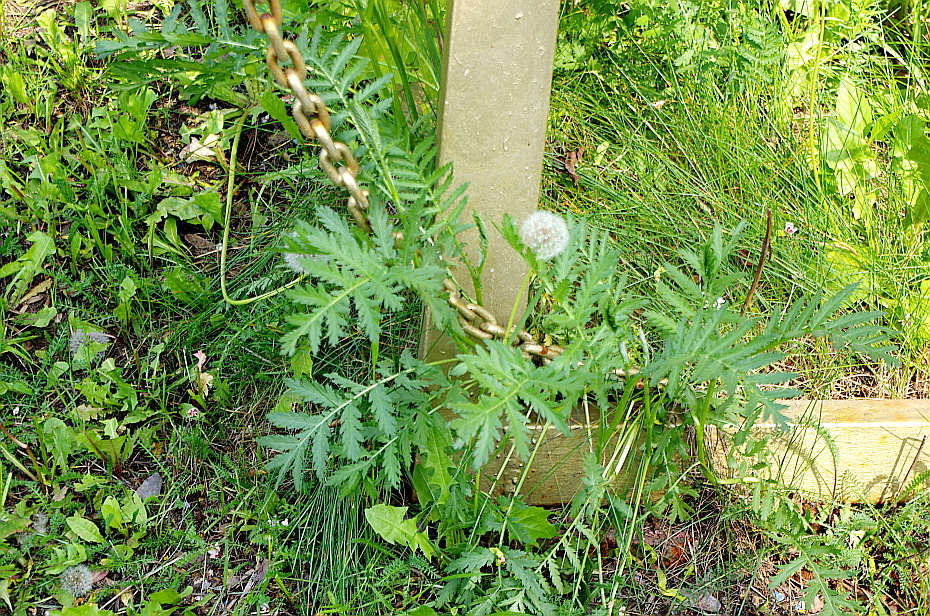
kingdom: Plantae
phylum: Tracheophyta
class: Magnoliopsida
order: Asterales
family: Asteraceae
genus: Tanacetum
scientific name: Tanacetum vulgare
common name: Common tansy
